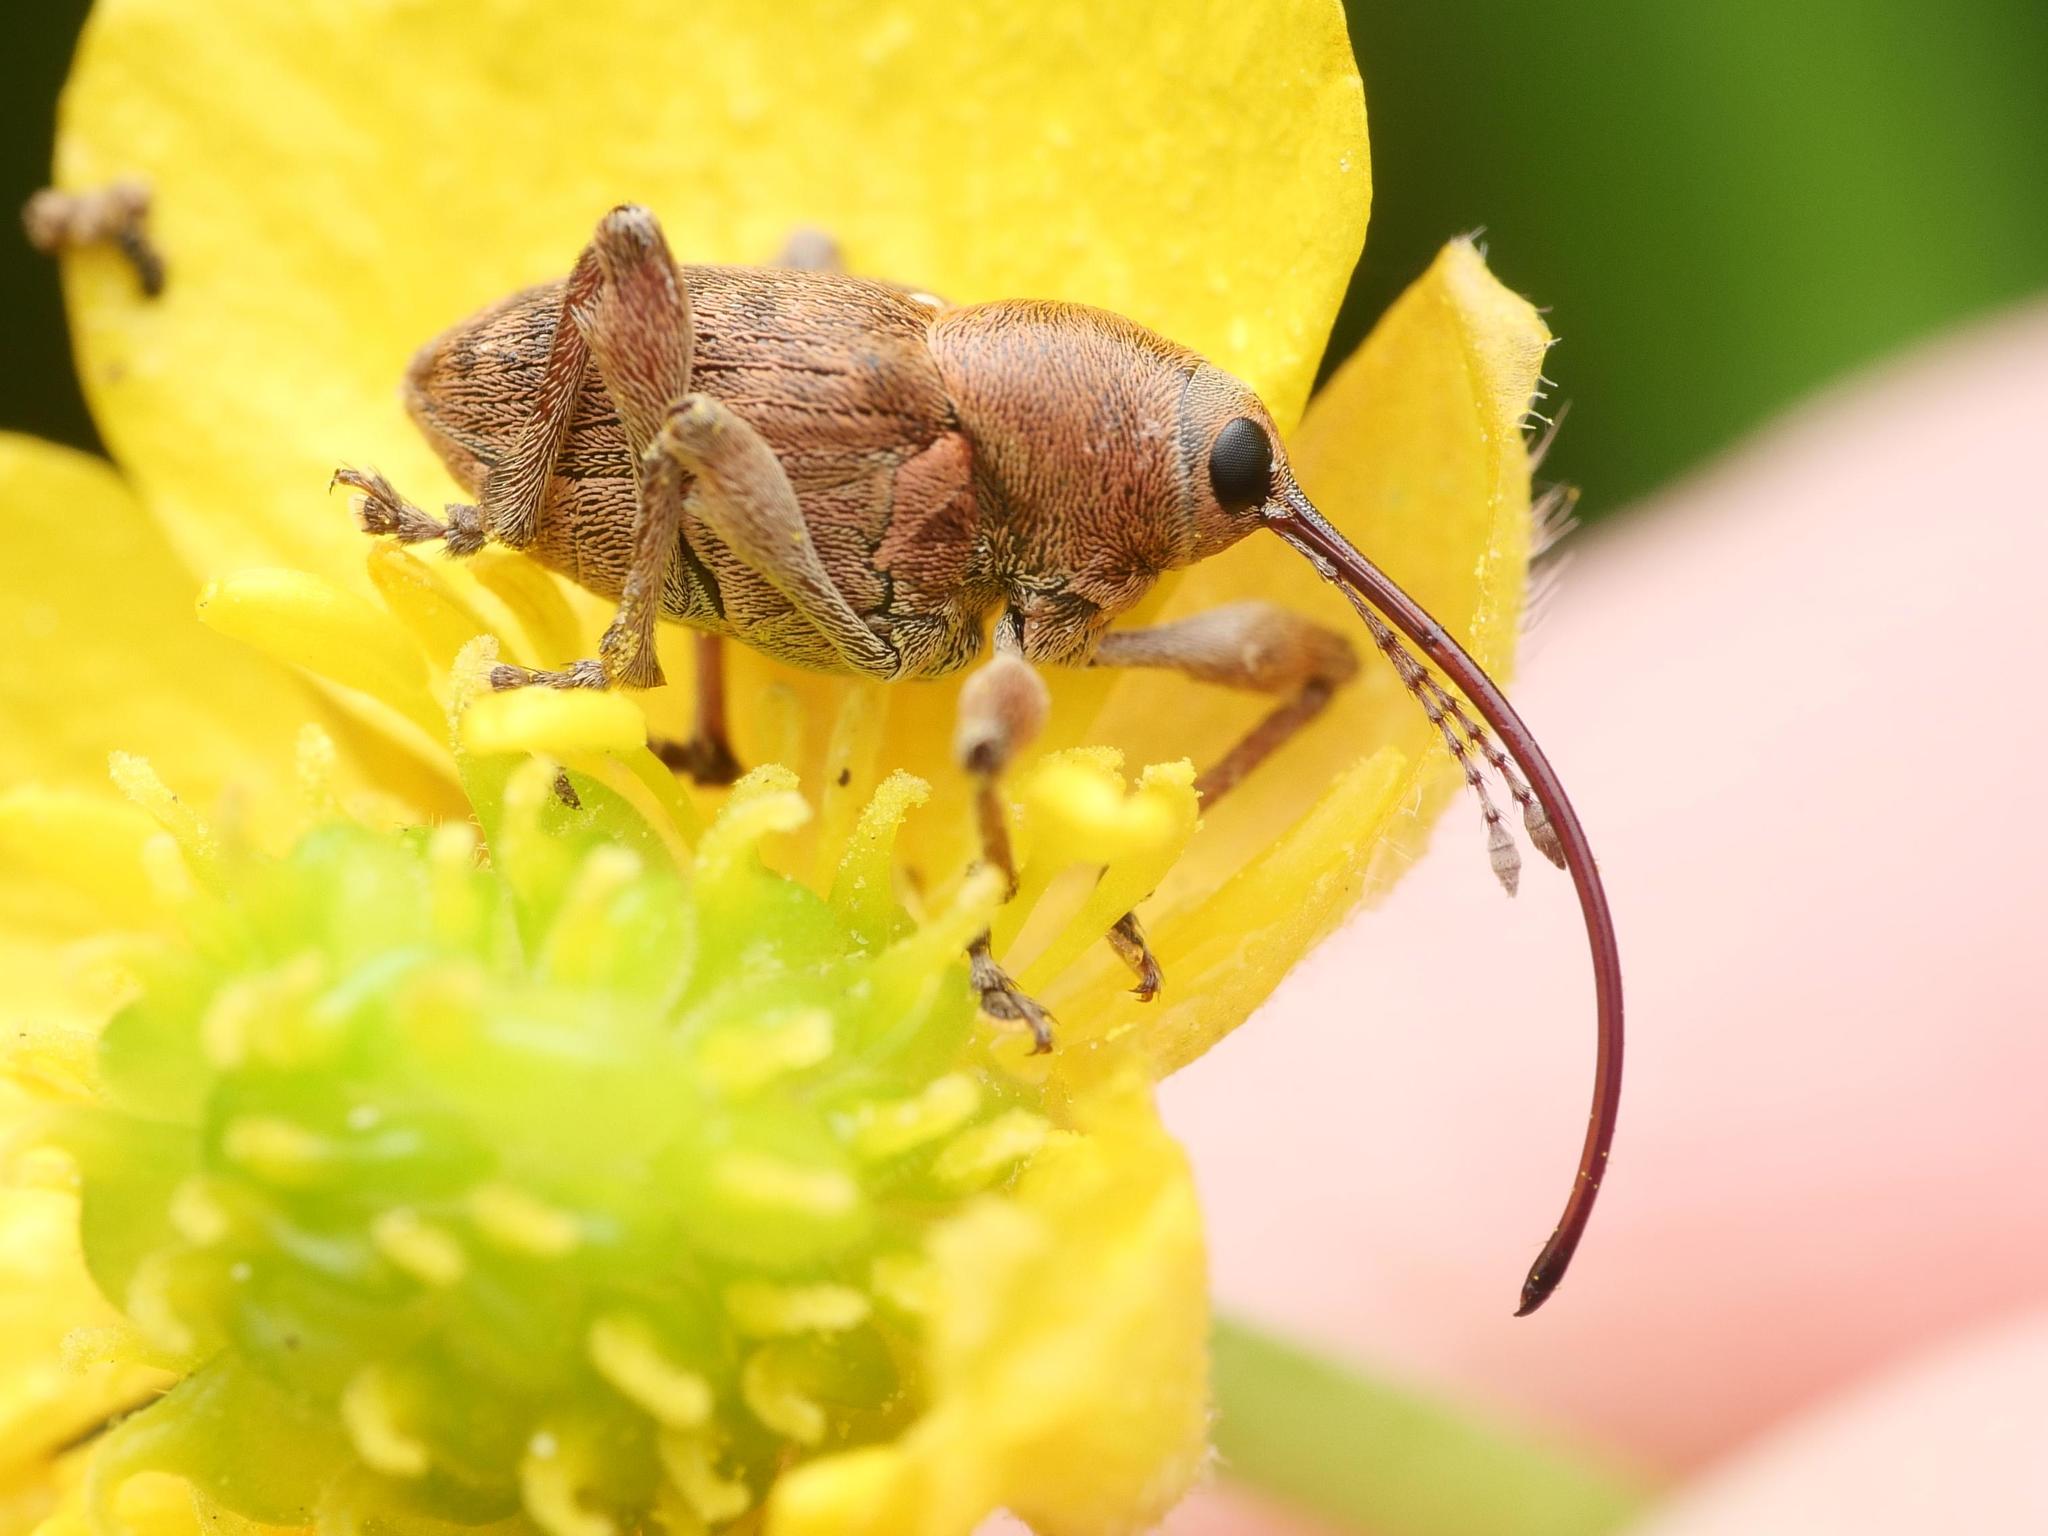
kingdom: Animalia
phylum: Arthropoda
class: Insecta
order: Coleoptera
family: Curculionidae
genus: Curculio
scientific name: Curculio glandium
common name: Acorn weevil
